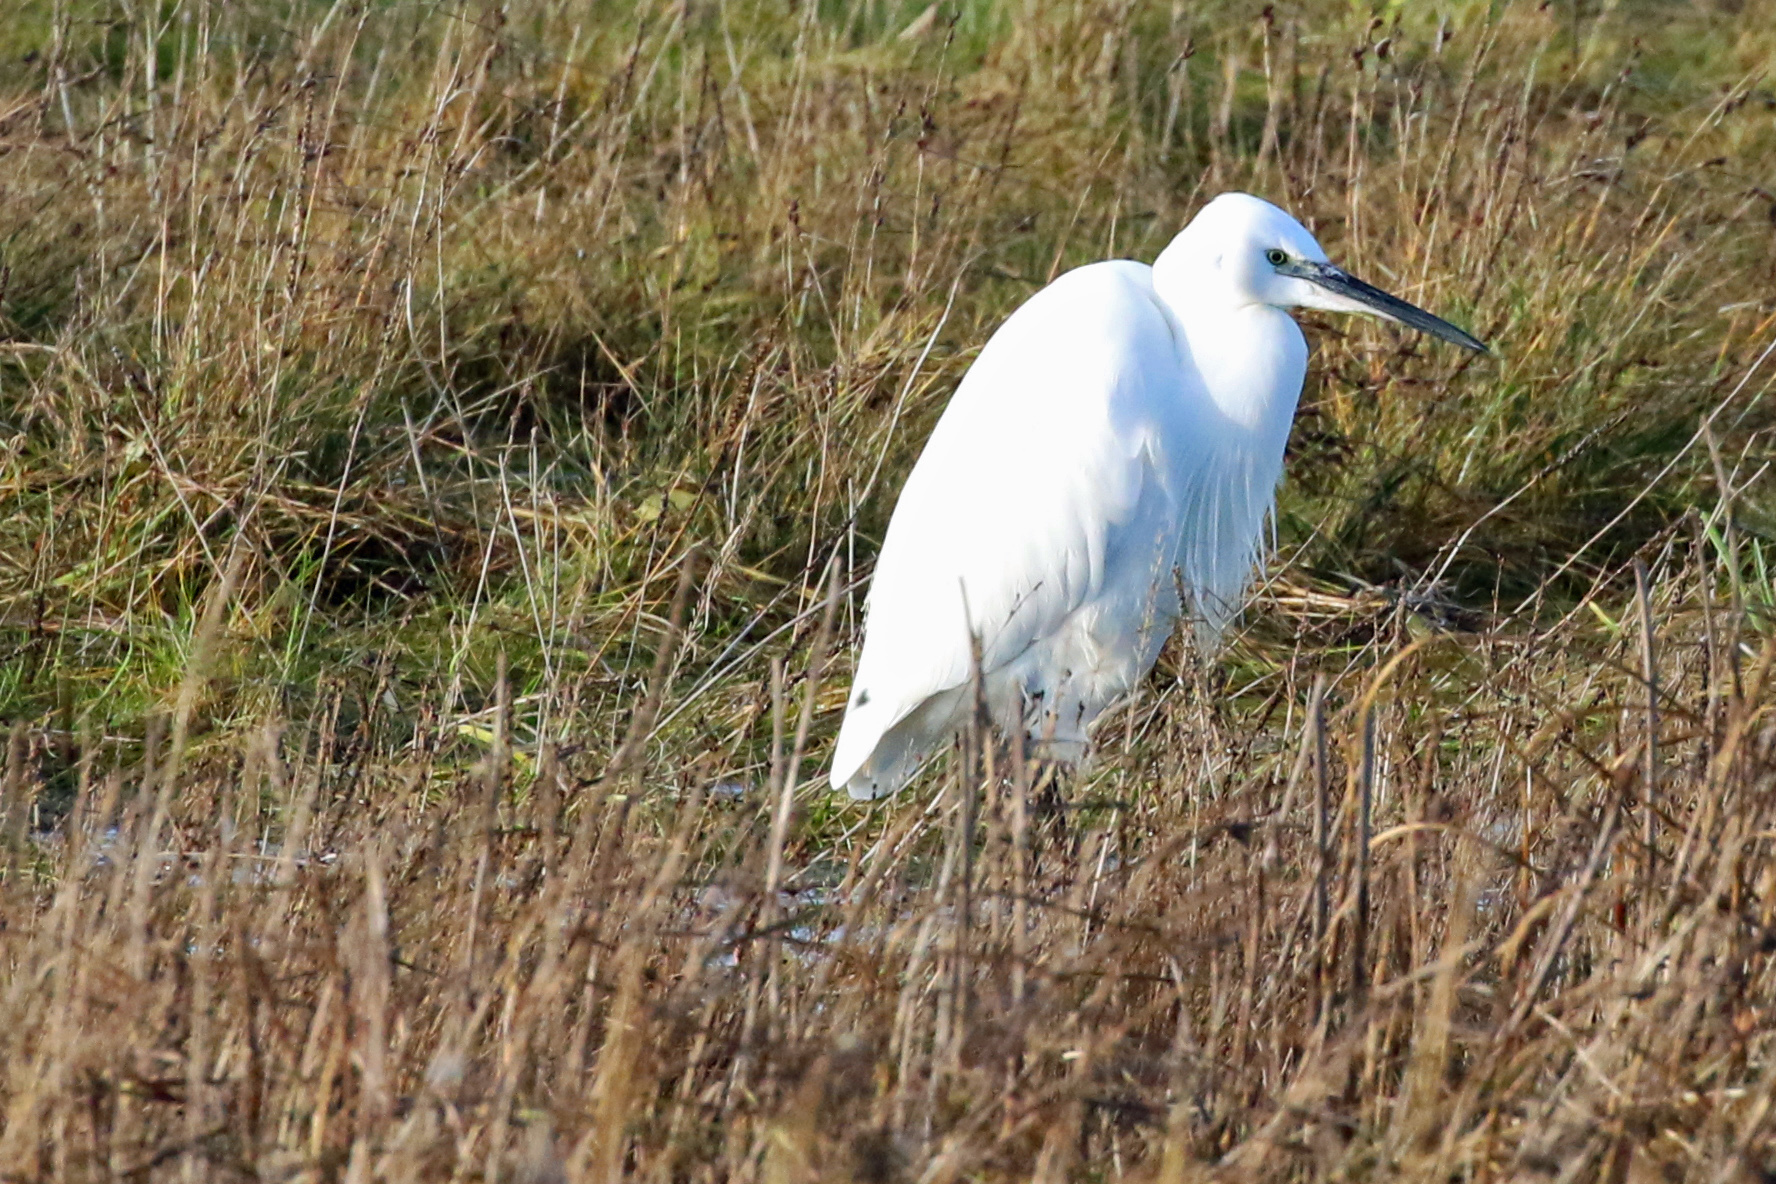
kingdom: Animalia
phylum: Chordata
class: Aves
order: Pelecaniformes
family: Ardeidae
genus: Egretta
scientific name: Egretta garzetta
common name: Little egret
